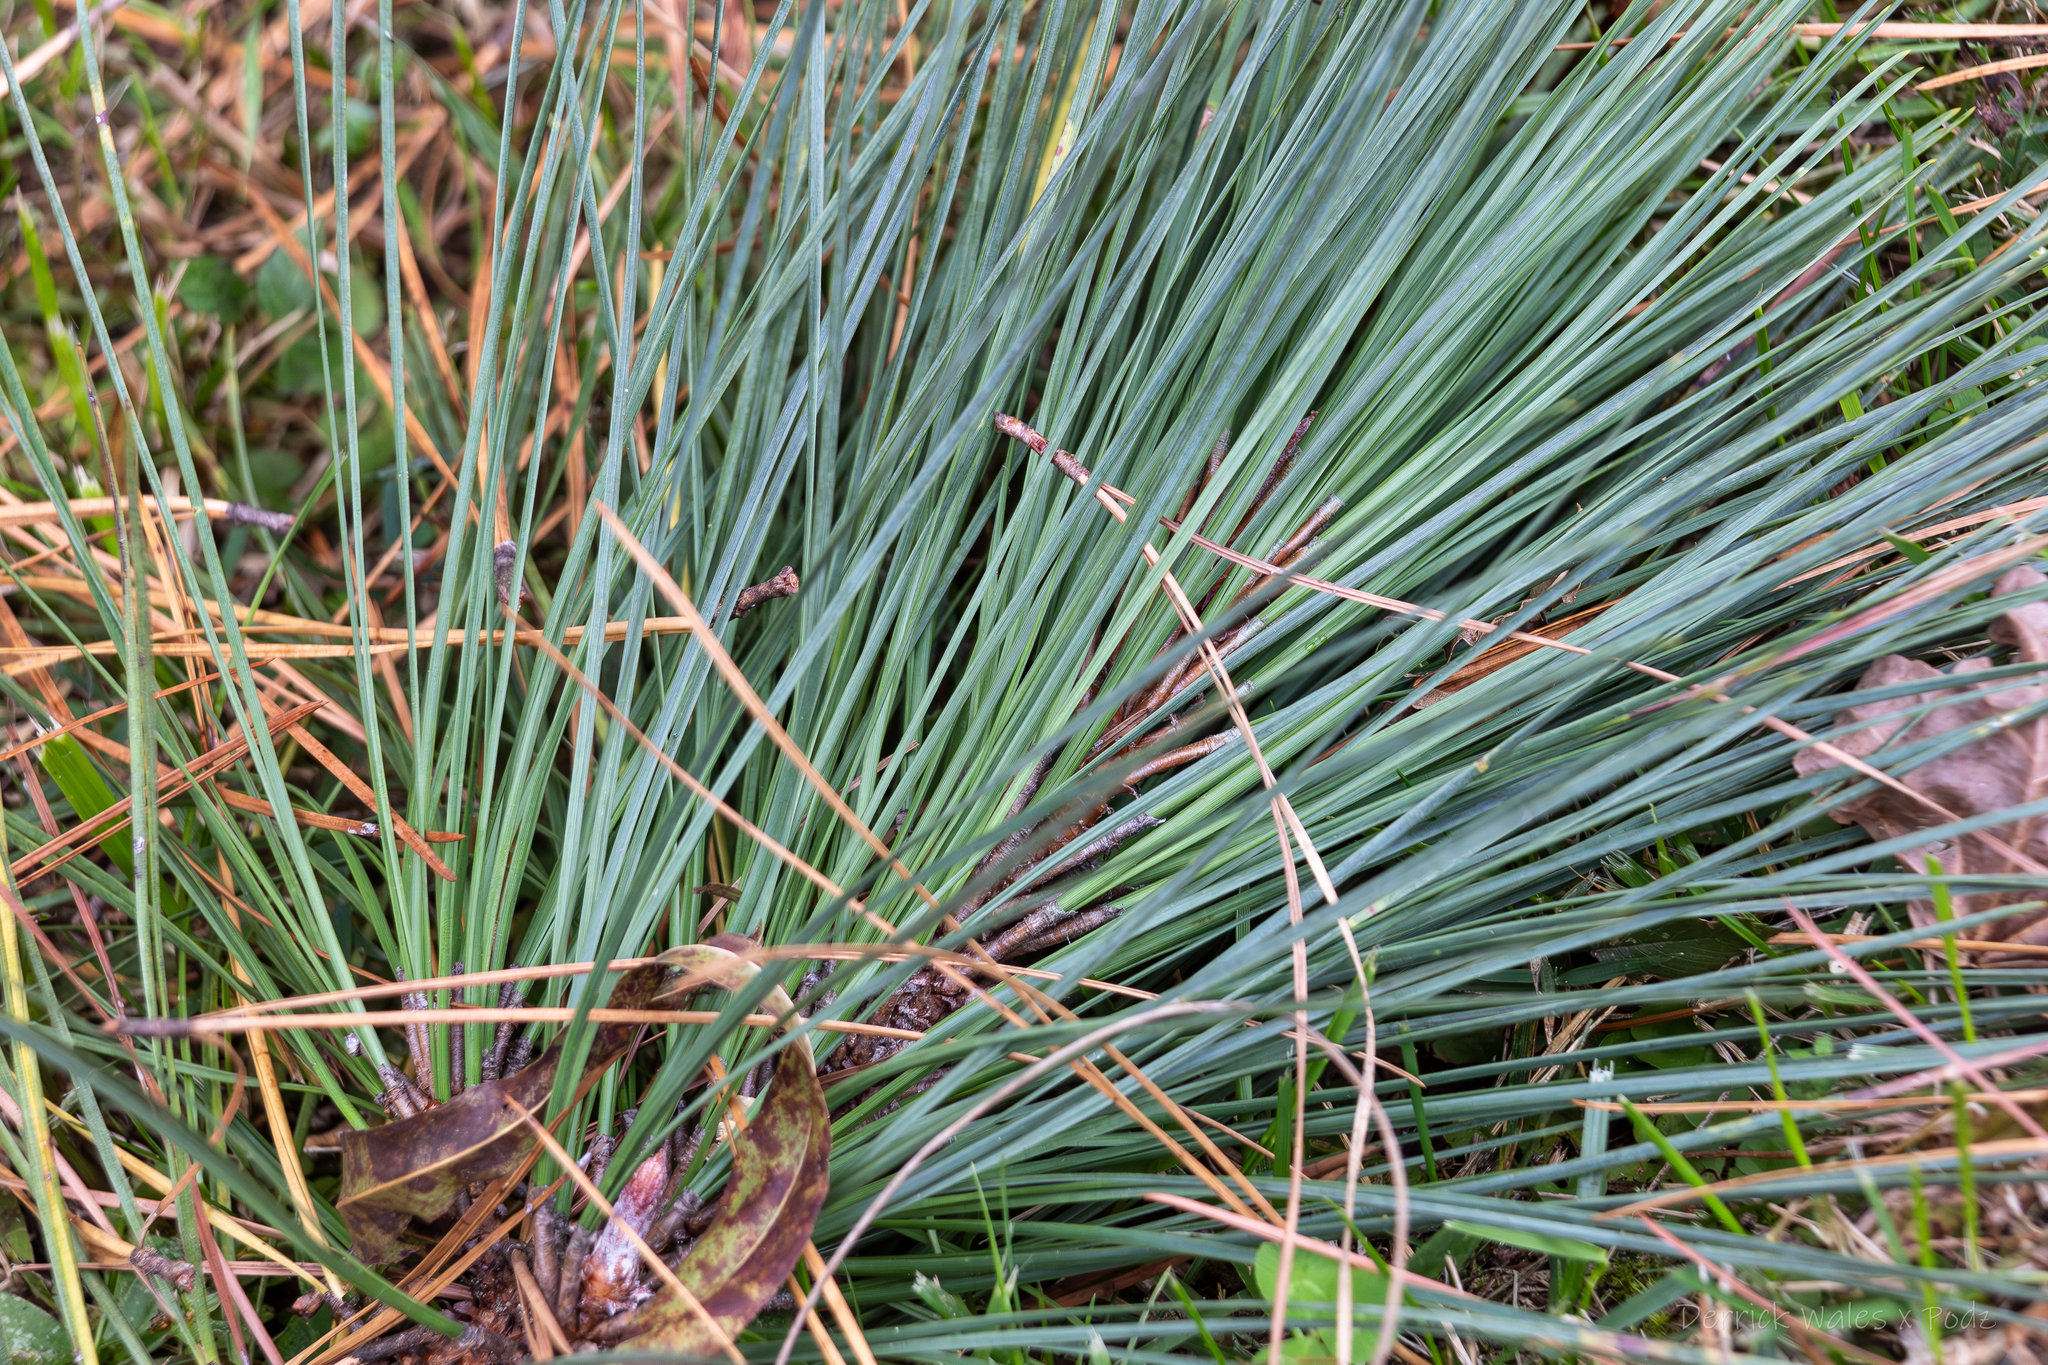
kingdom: Plantae
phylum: Tracheophyta
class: Pinopsida
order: Pinales
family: Pinaceae
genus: Pinus
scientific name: Pinus
